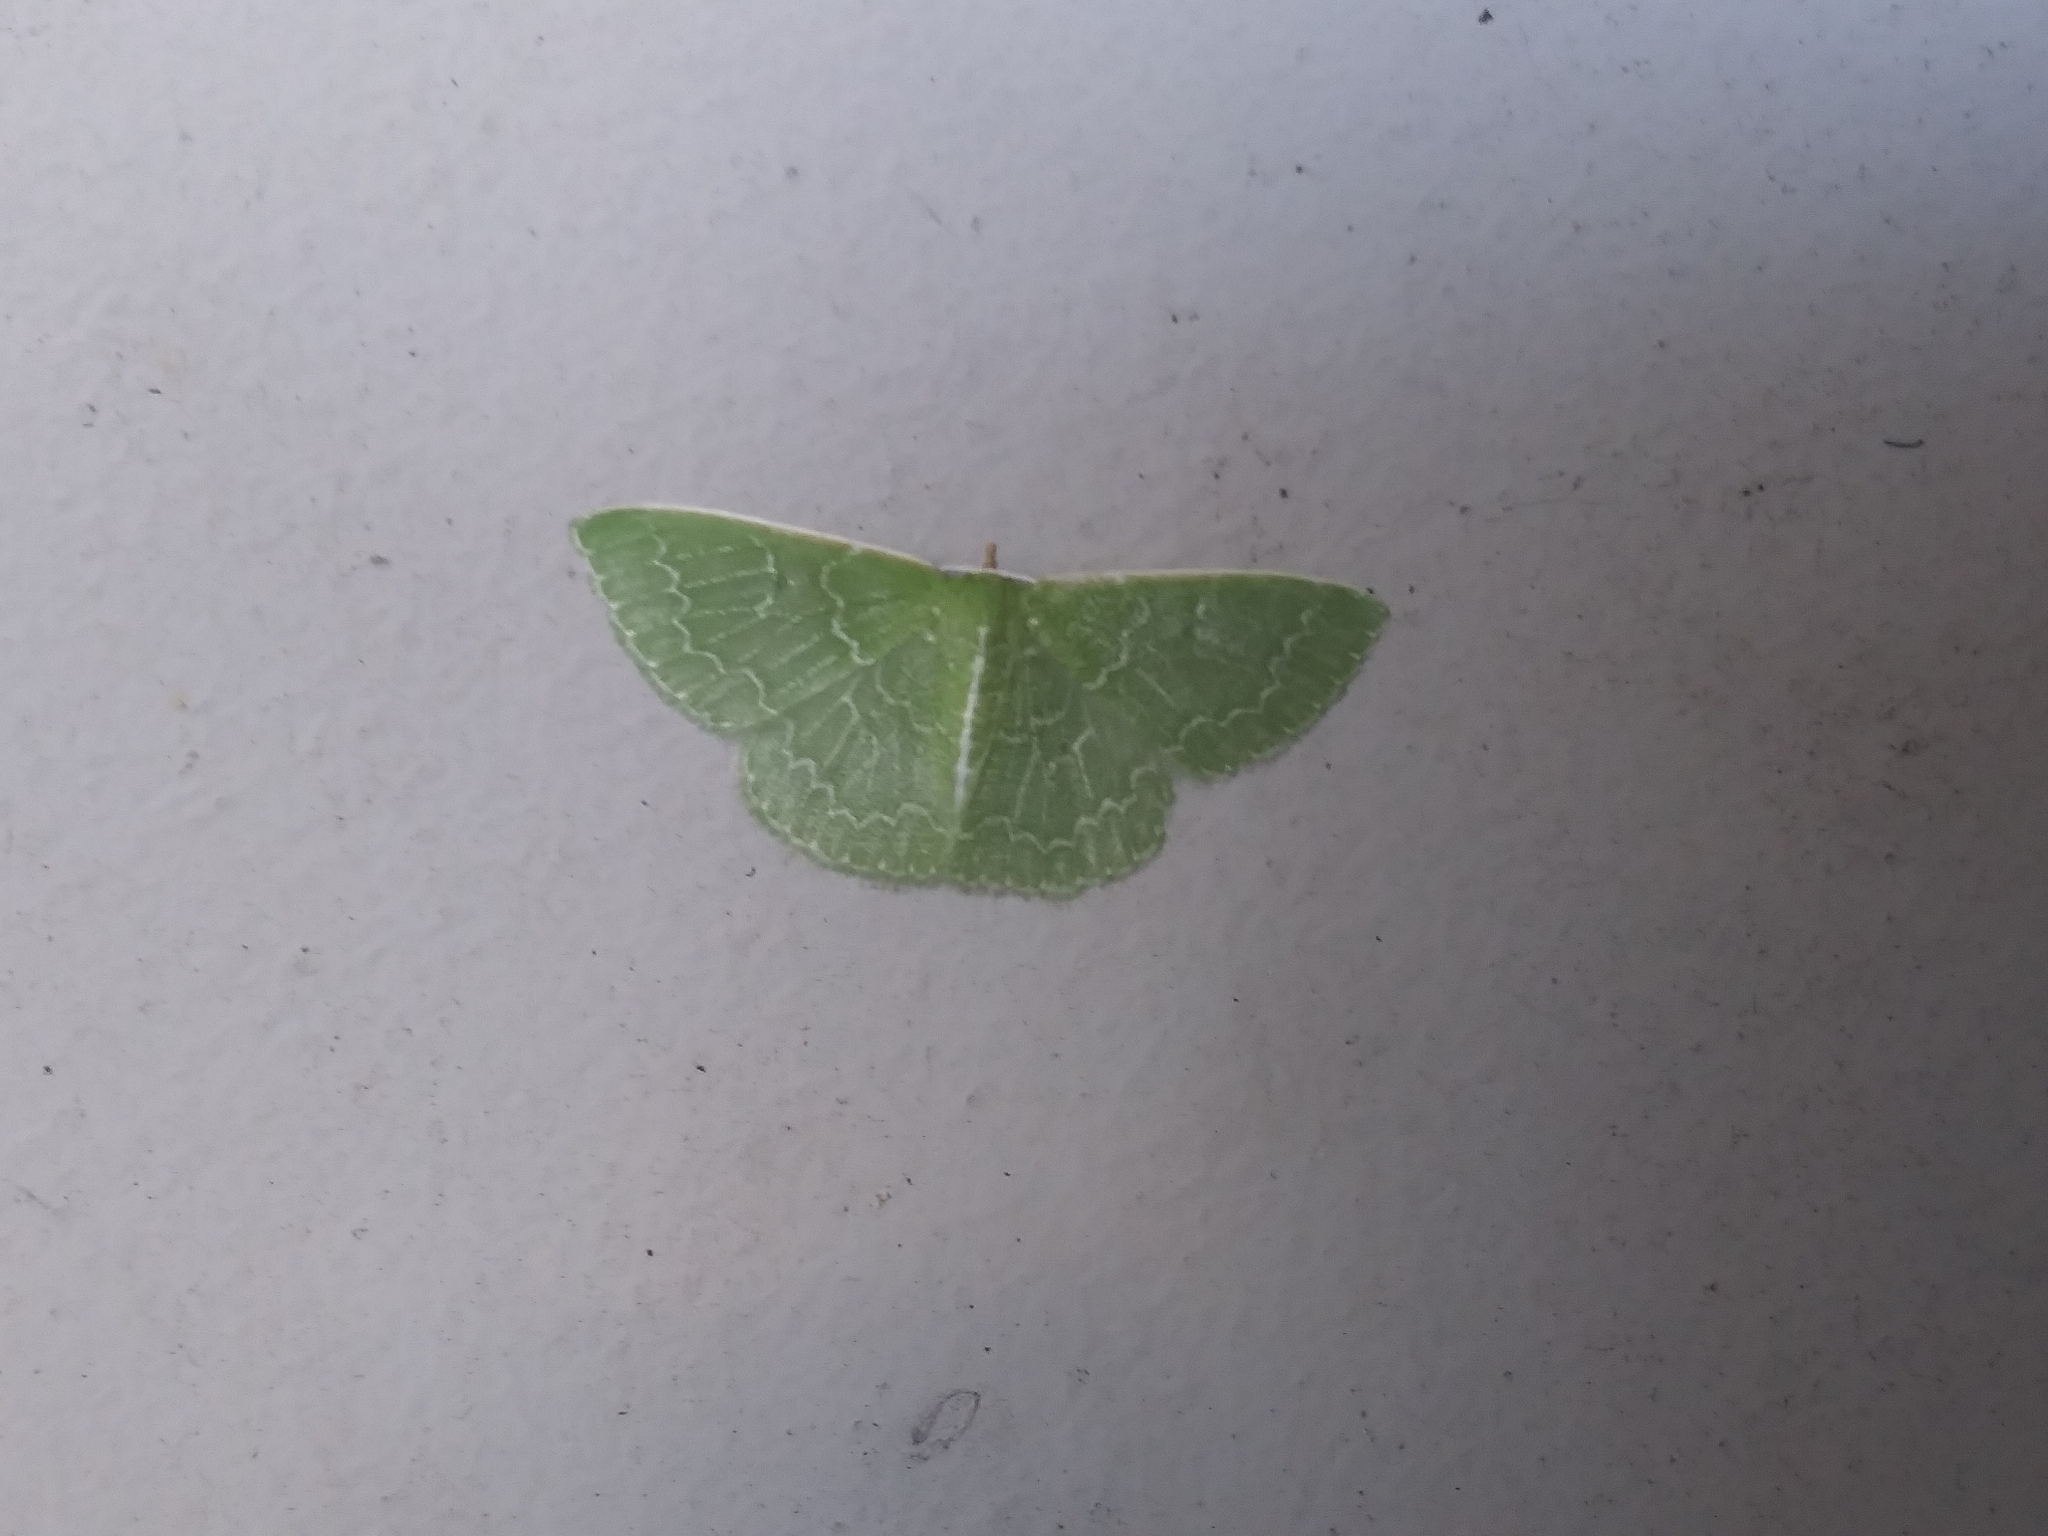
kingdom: Animalia
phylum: Arthropoda
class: Insecta
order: Lepidoptera
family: Geometridae
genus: Synchlora
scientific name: Synchlora frondaria
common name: Southern emerald
